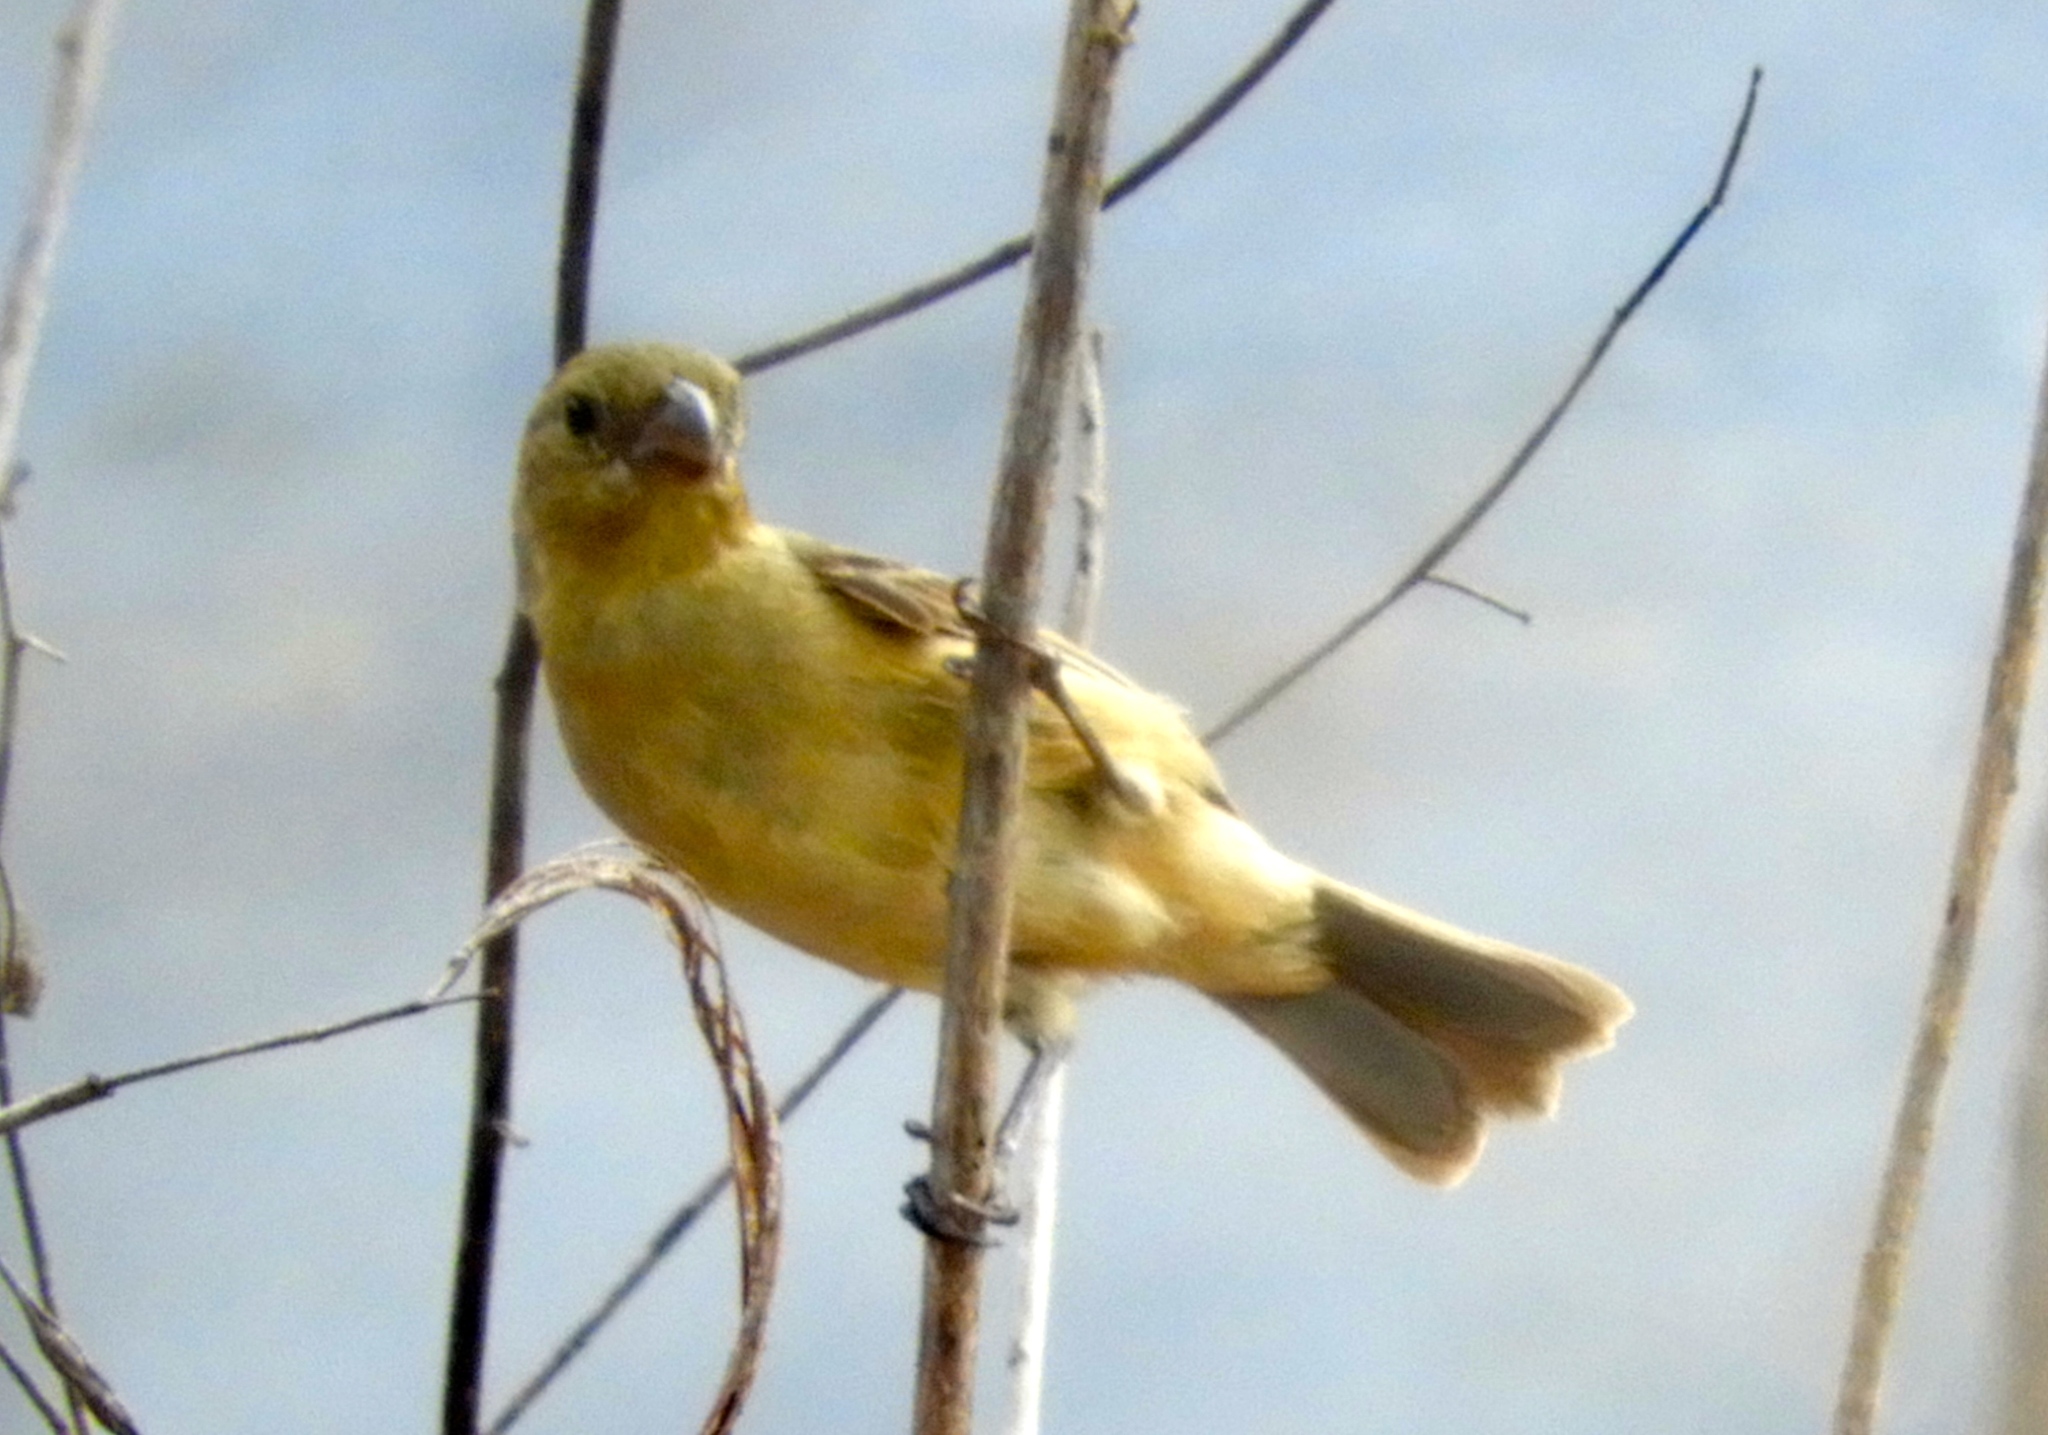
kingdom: Animalia
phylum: Chordata
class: Aves
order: Passeriformes
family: Thraupidae
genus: Sporophila
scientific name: Sporophila torqueola
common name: White-collared seedeater
